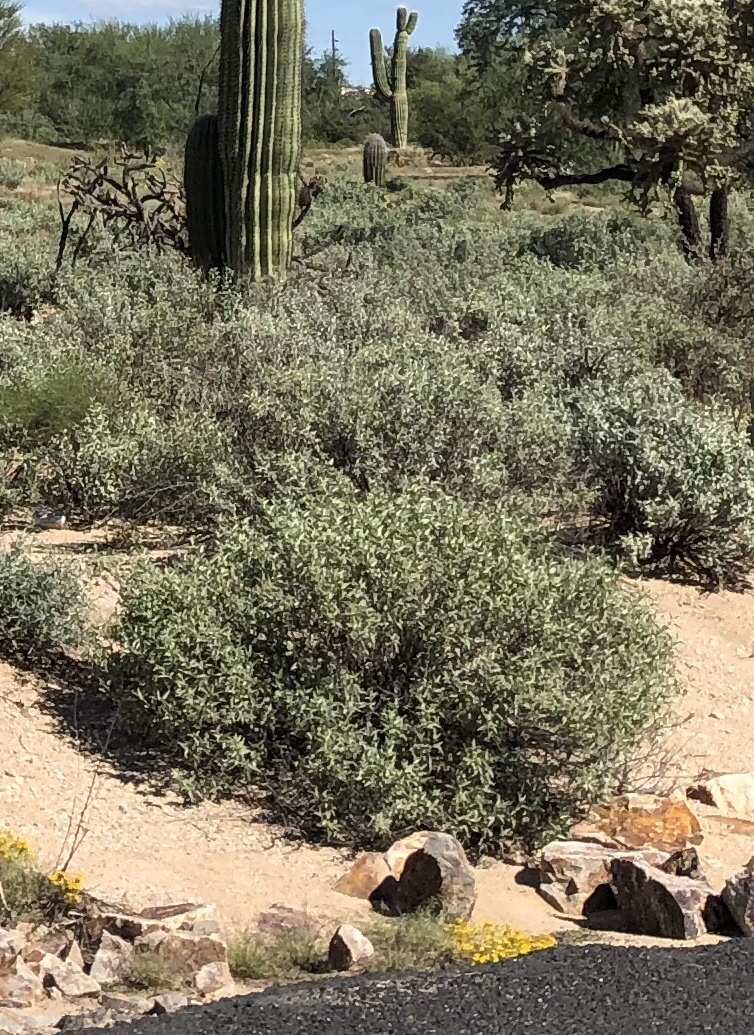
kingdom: Plantae
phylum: Tracheophyta
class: Magnoliopsida
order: Asterales
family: Asteraceae
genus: Ambrosia
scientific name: Ambrosia deltoidea
